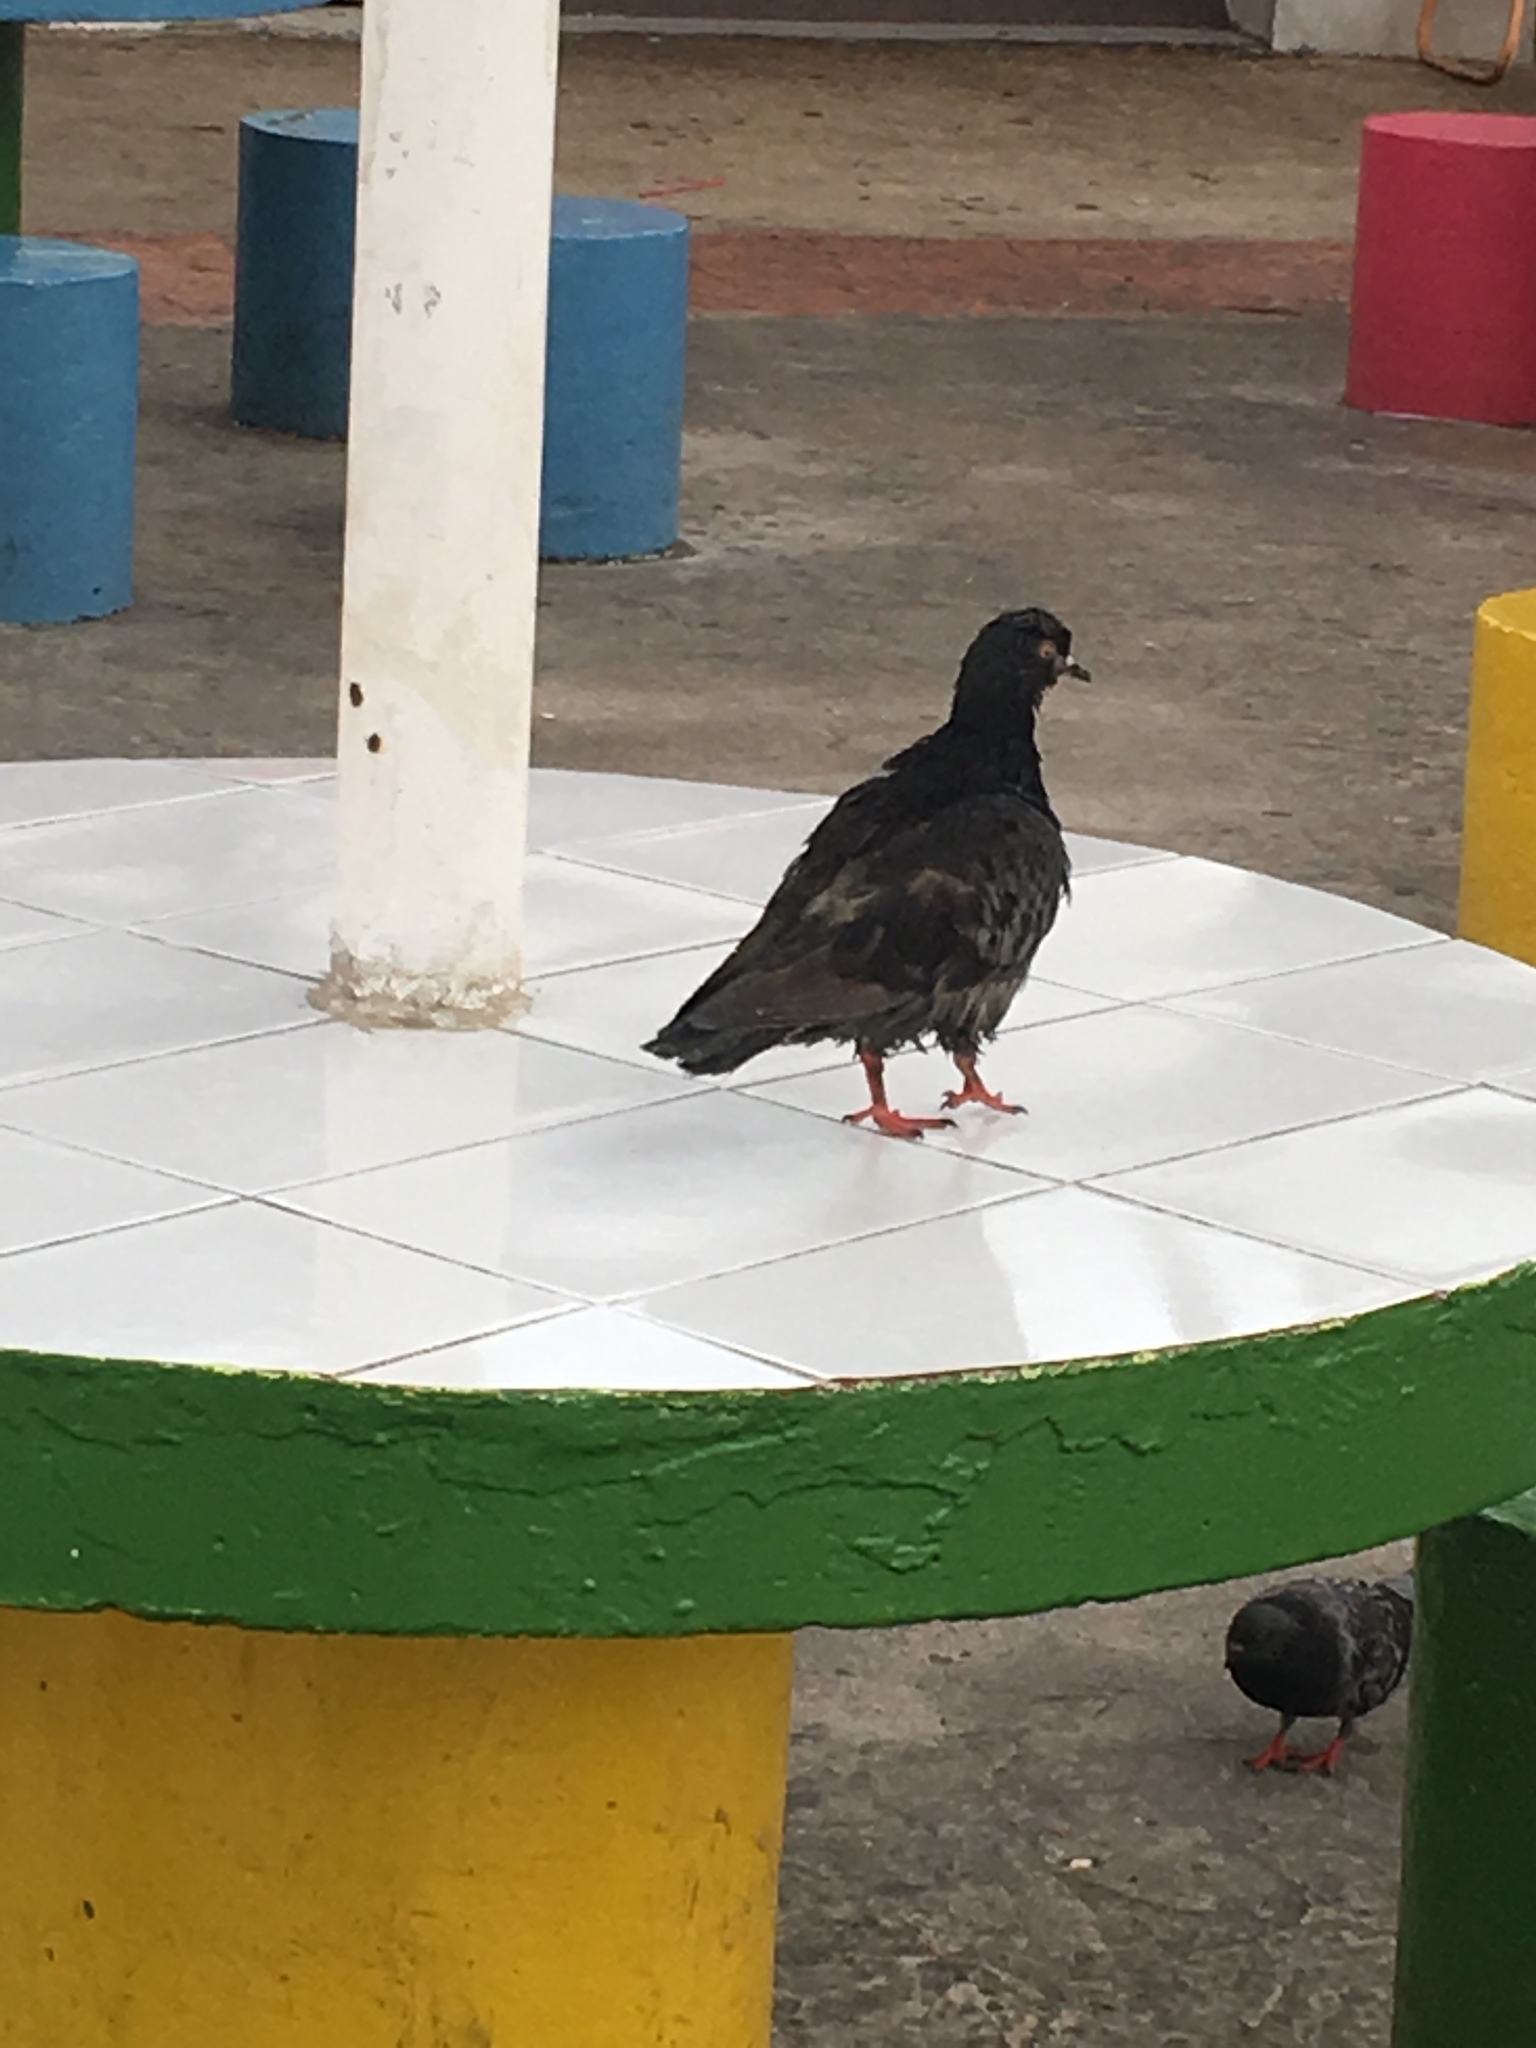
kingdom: Animalia
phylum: Chordata
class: Aves
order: Columbiformes
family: Columbidae
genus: Columba
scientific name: Columba livia
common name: Rock pigeon
